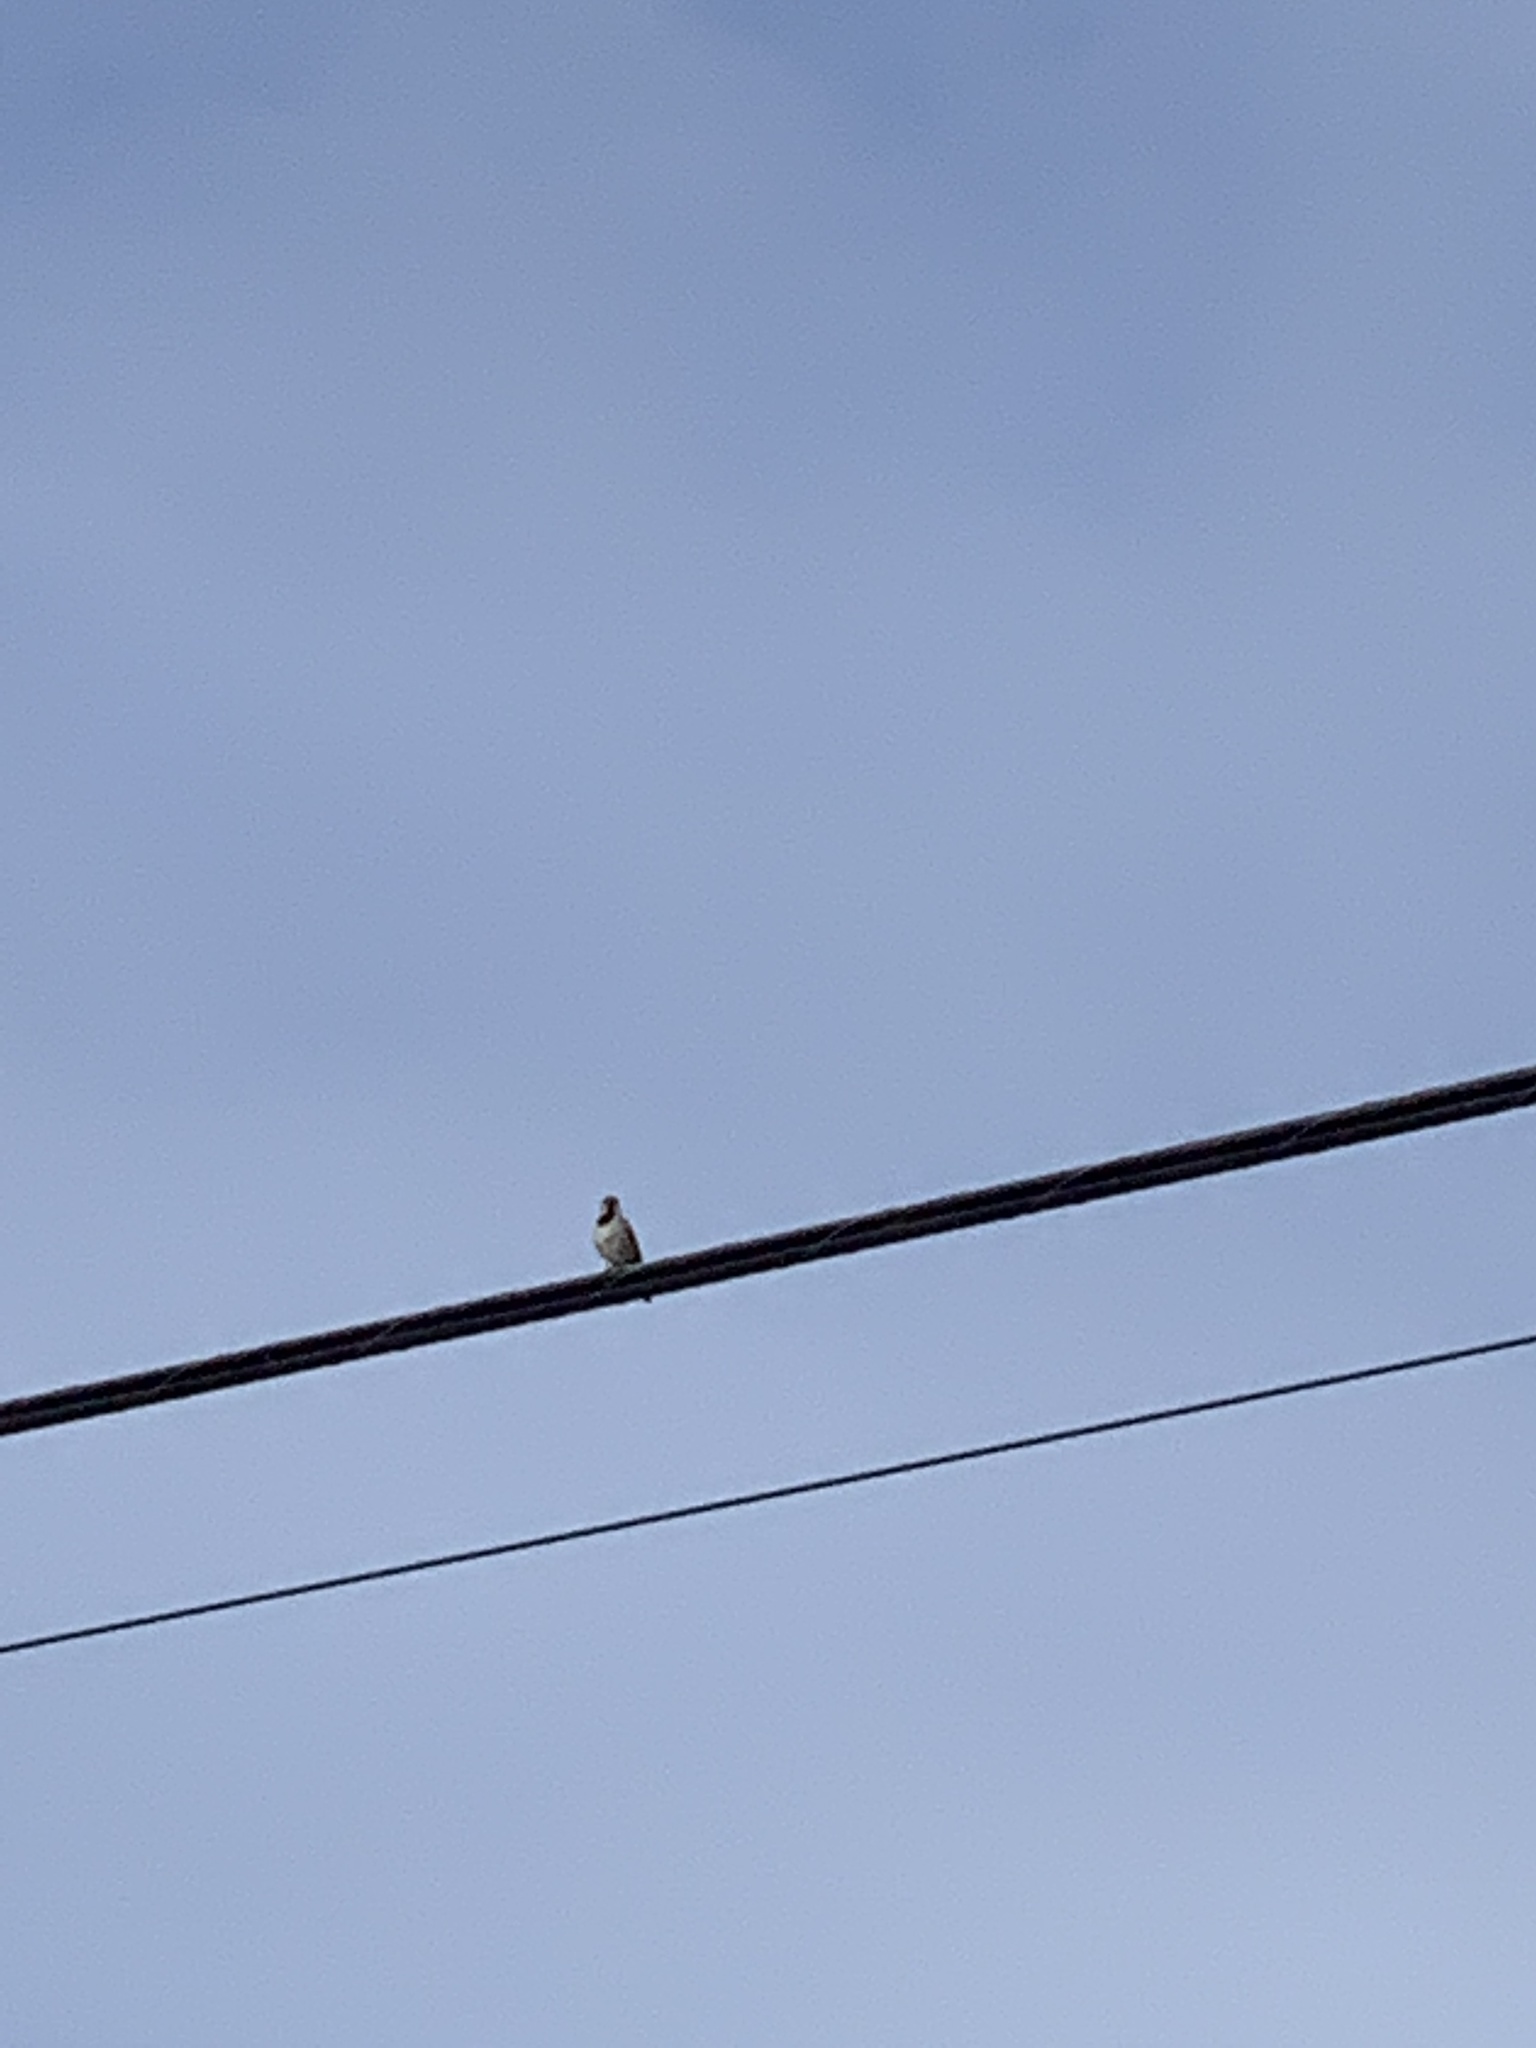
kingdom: Animalia
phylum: Chordata
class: Aves
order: Passeriformes
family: Passeridae
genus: Passer
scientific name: Passer domesticus
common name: House sparrow
